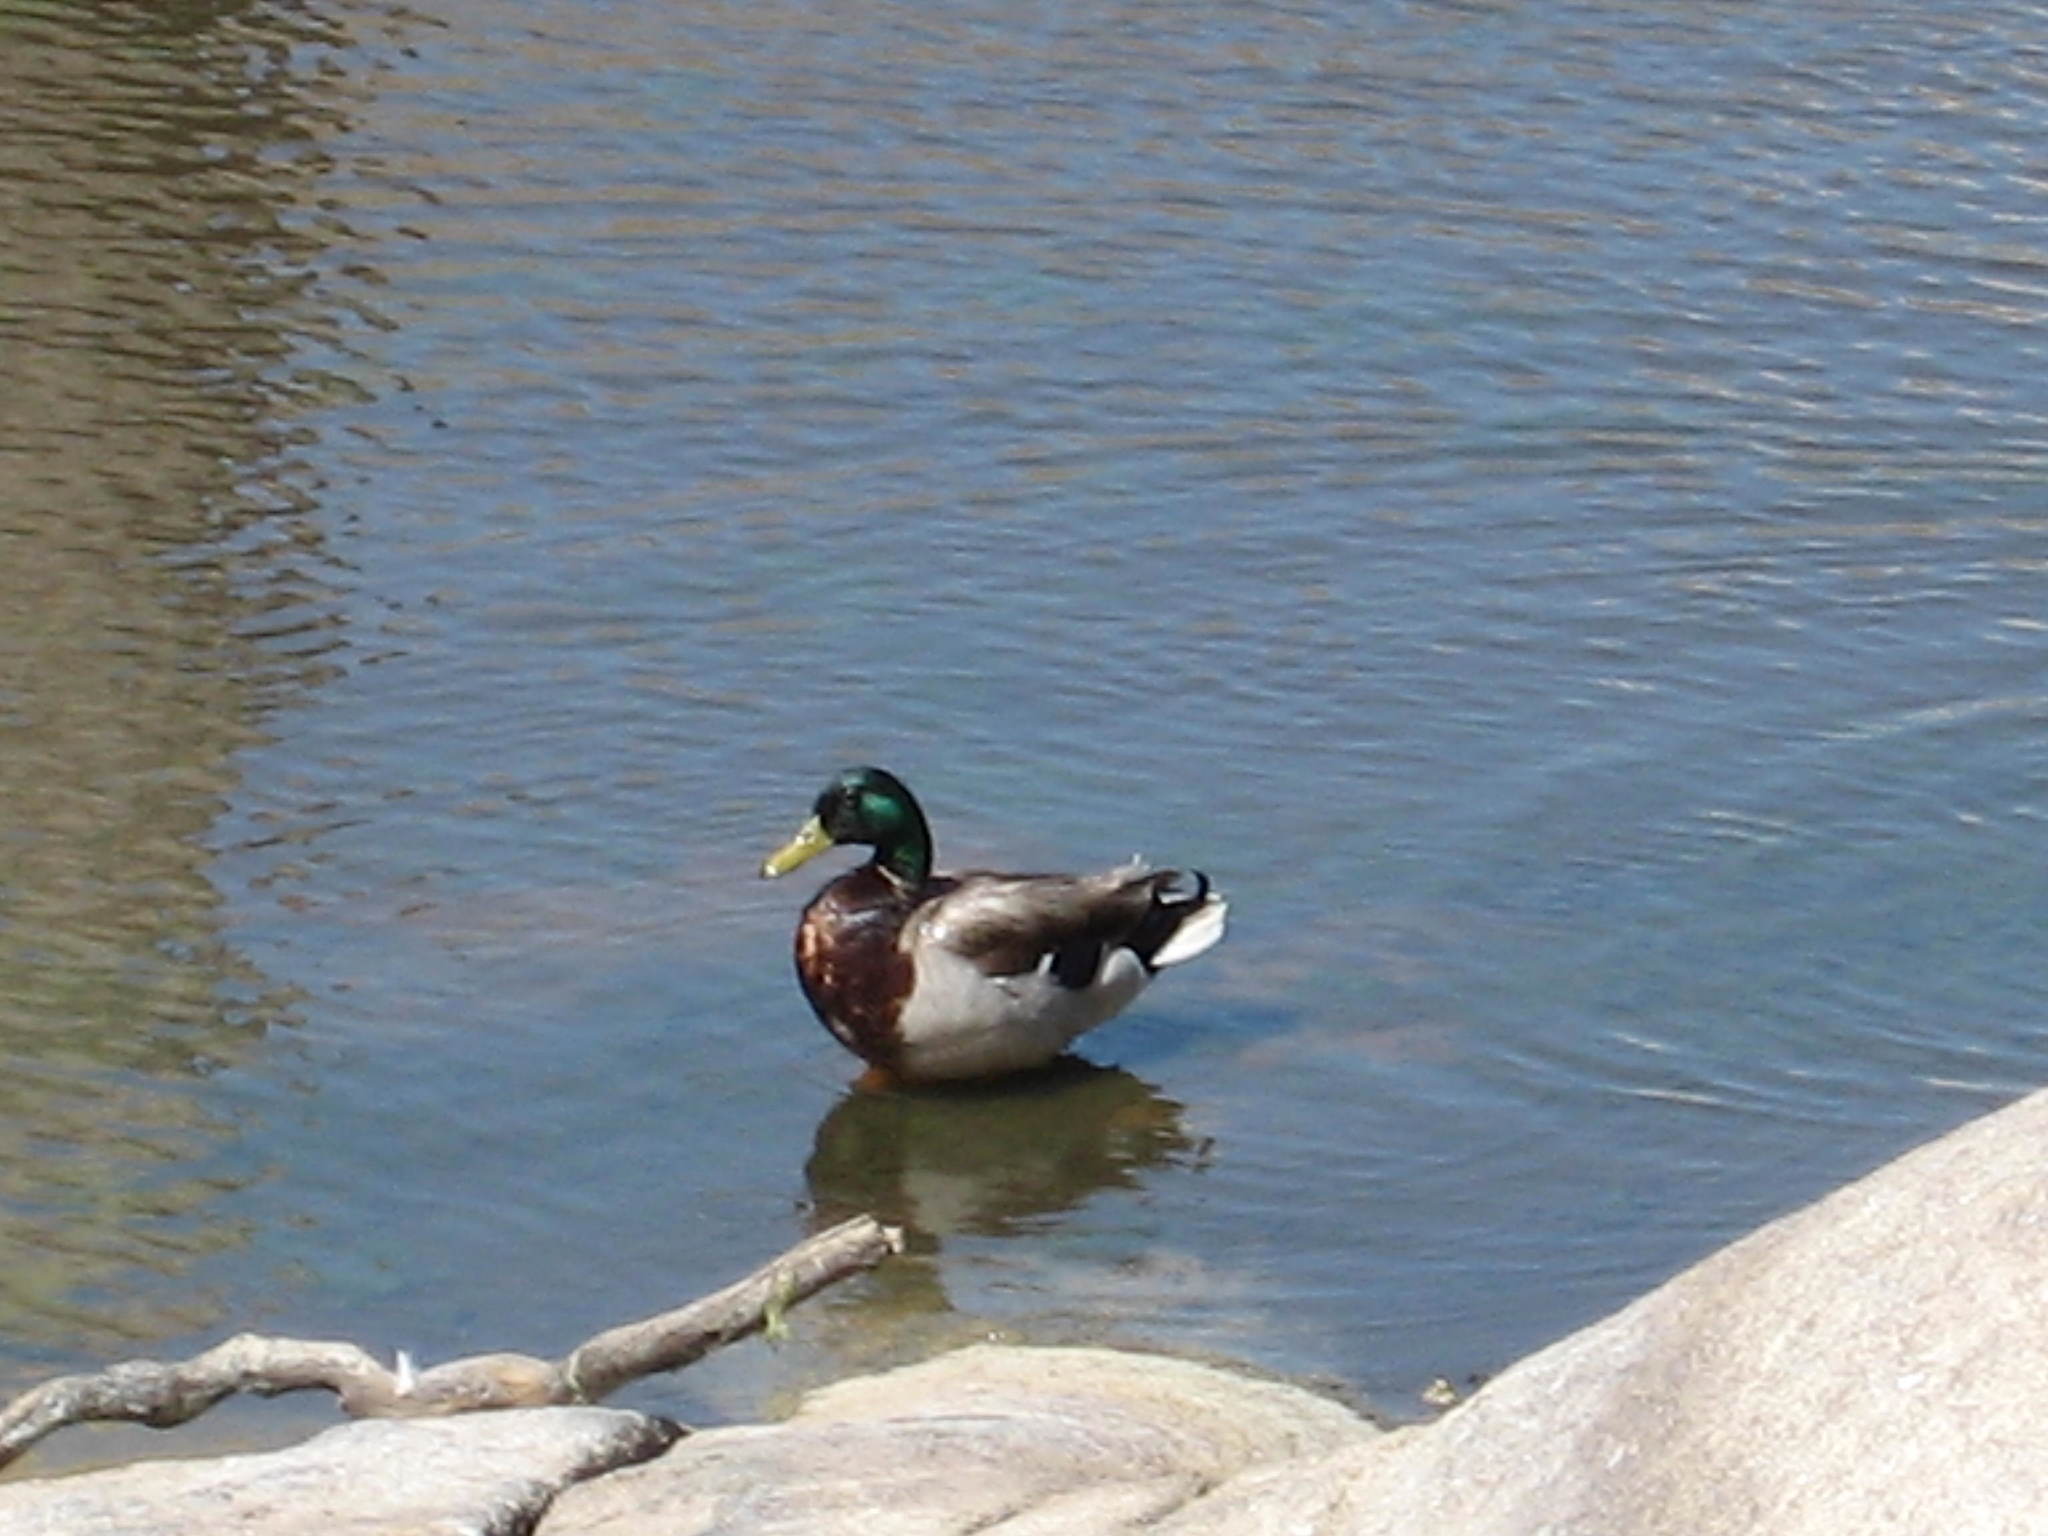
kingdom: Animalia
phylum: Chordata
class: Aves
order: Anseriformes
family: Anatidae
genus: Anas
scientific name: Anas platyrhynchos
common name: Mallard
